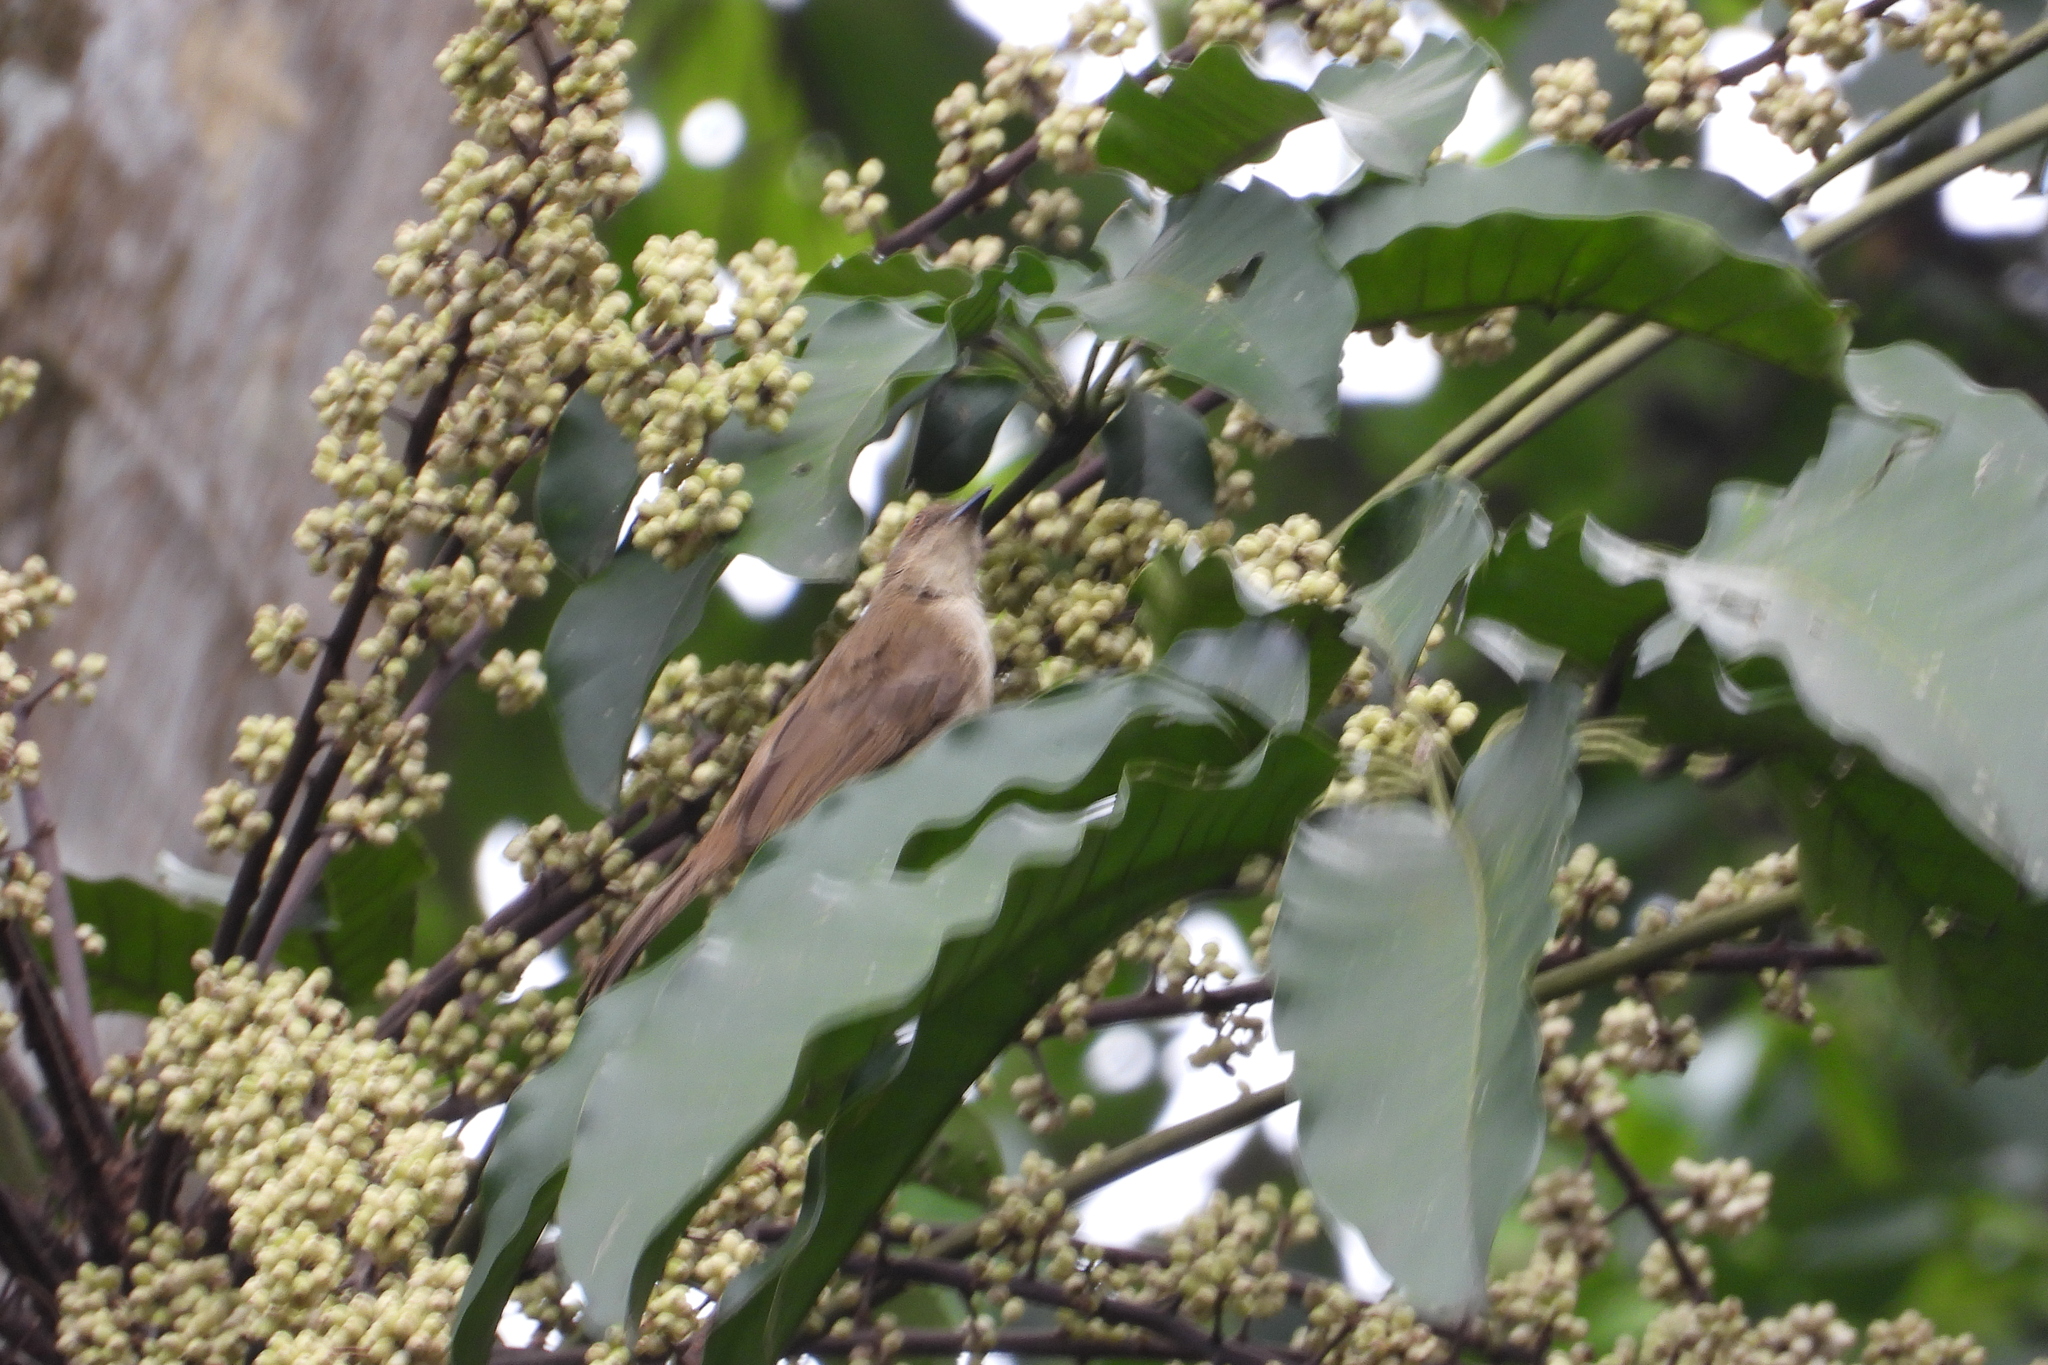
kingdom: Animalia
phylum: Chordata
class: Aves
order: Passeriformes
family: Pycnonotidae
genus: Pycnonotus
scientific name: Pycnonotus simplex
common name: Cream-vented bulbul
